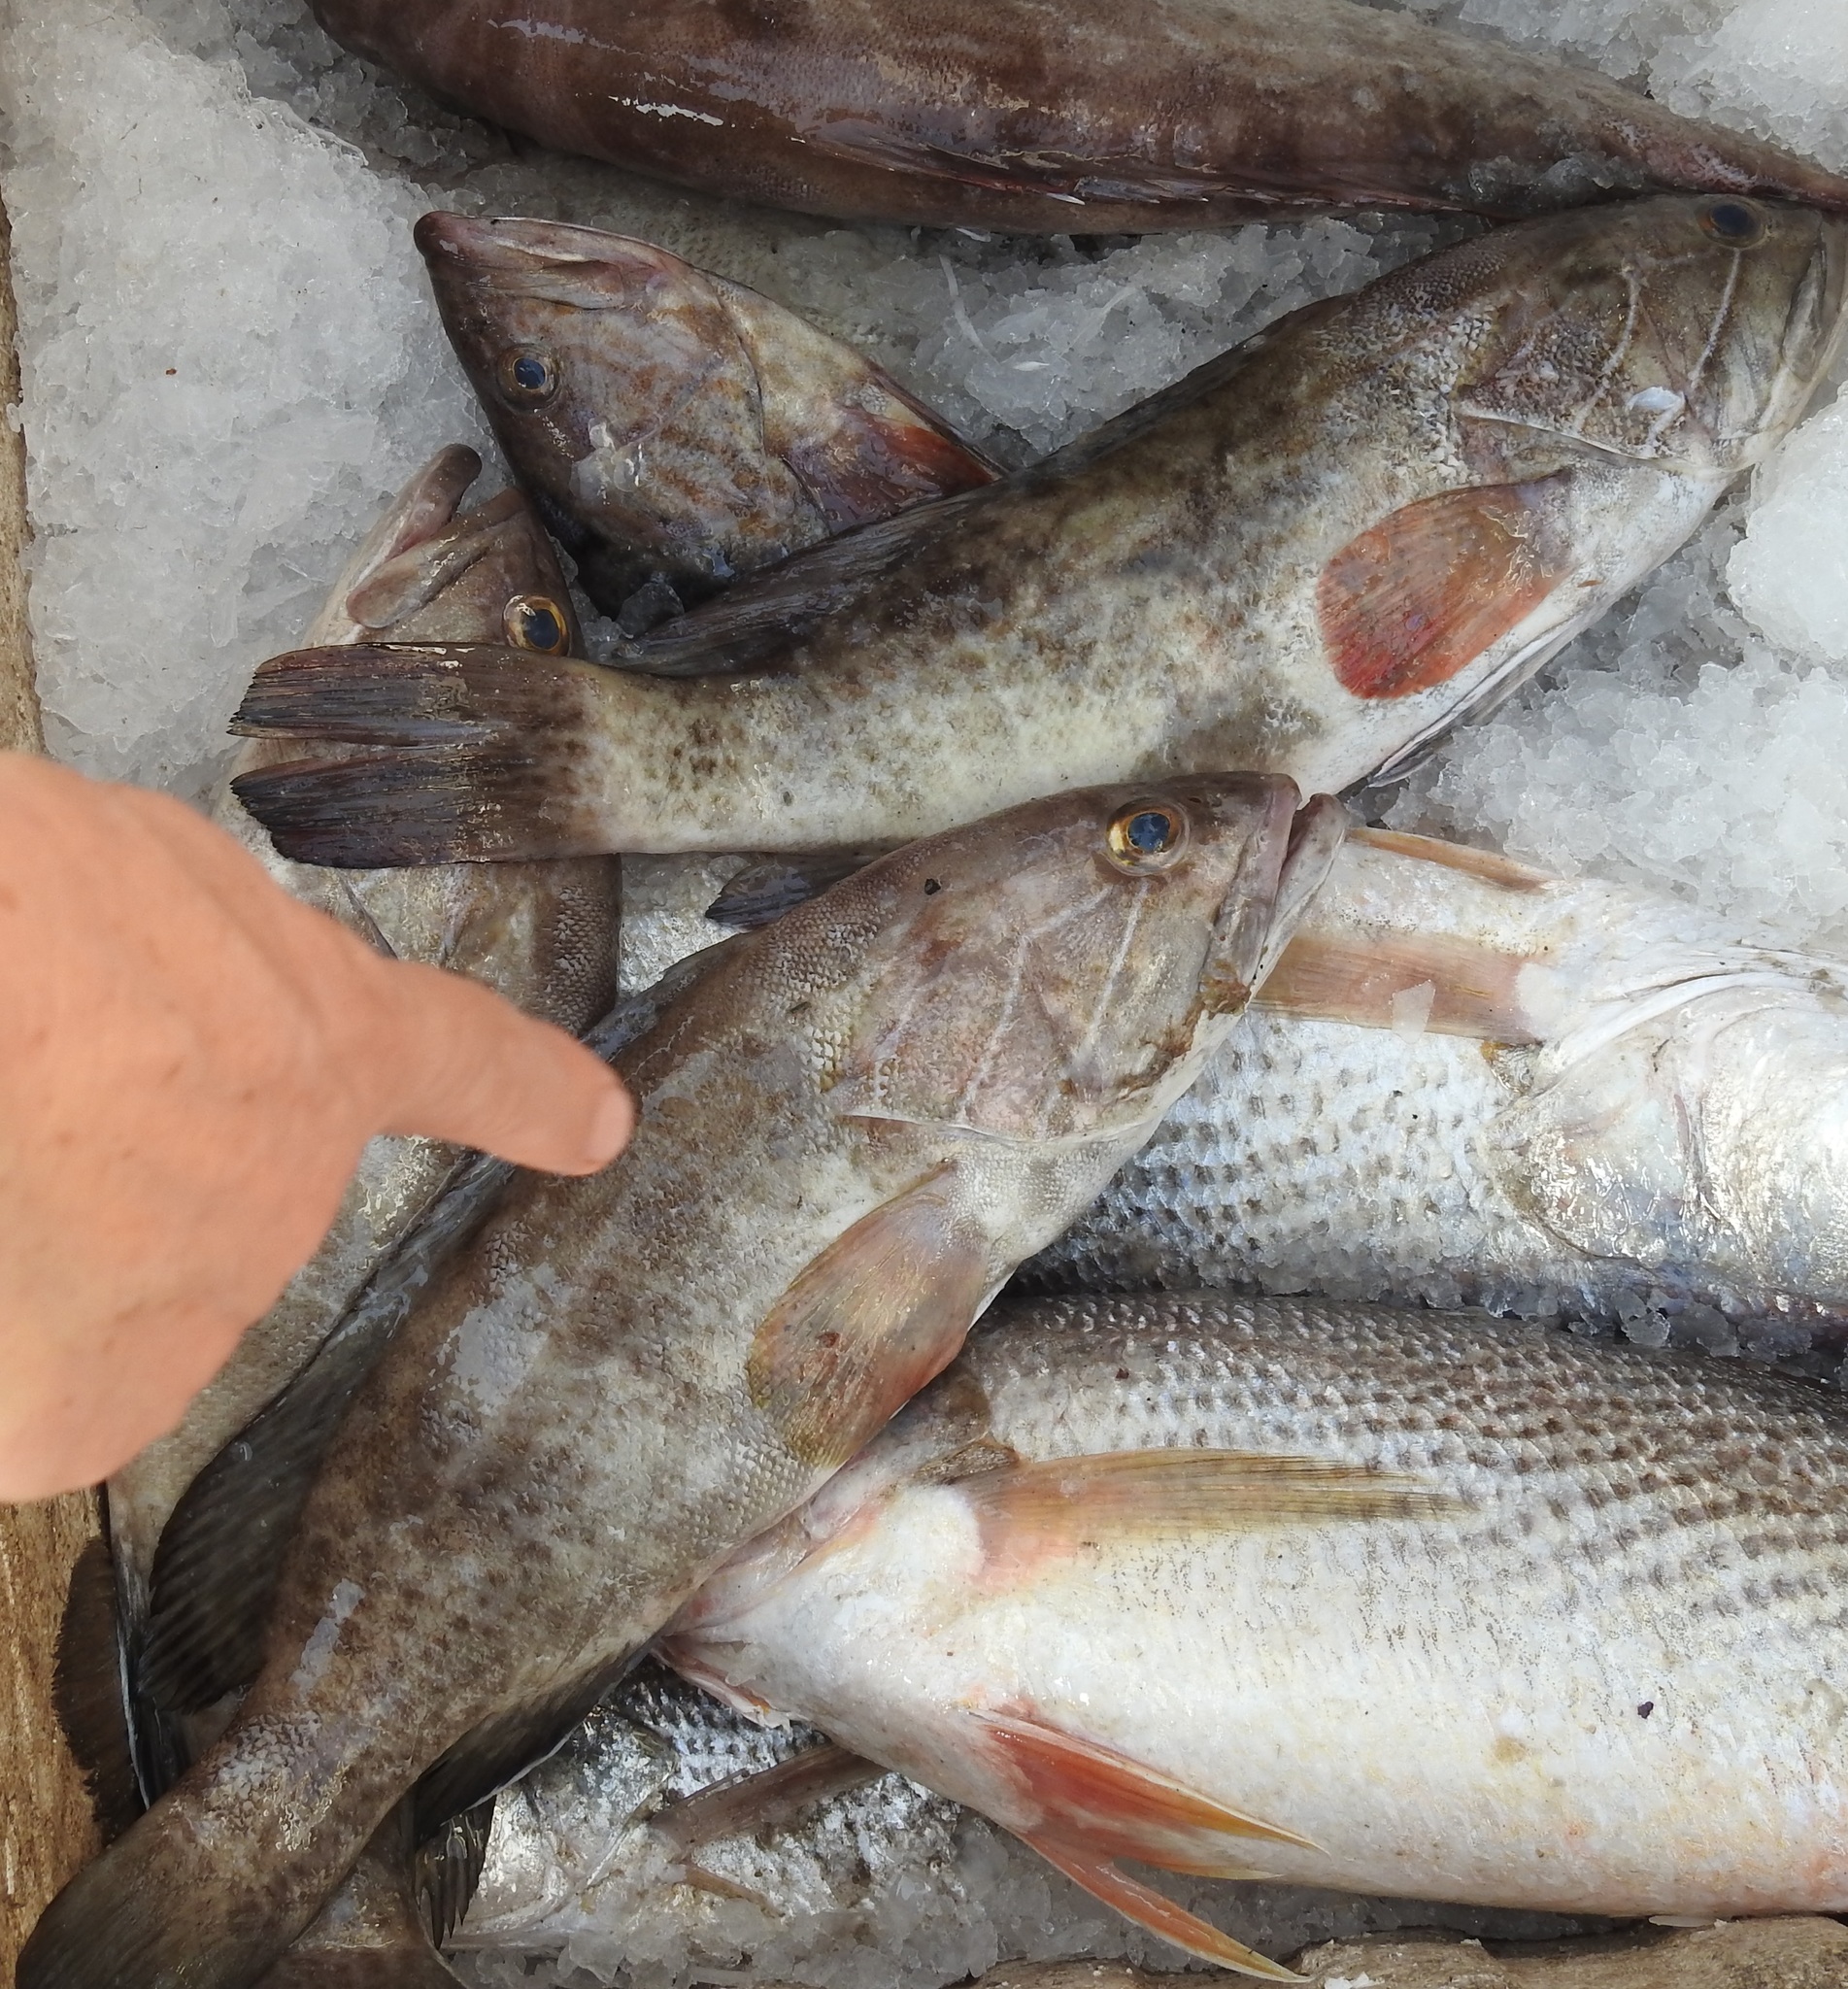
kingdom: Animalia
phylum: Chordata
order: Perciformes
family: Serranidae
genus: Epinephelus
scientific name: Epinephelus aeneus
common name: White grouper
